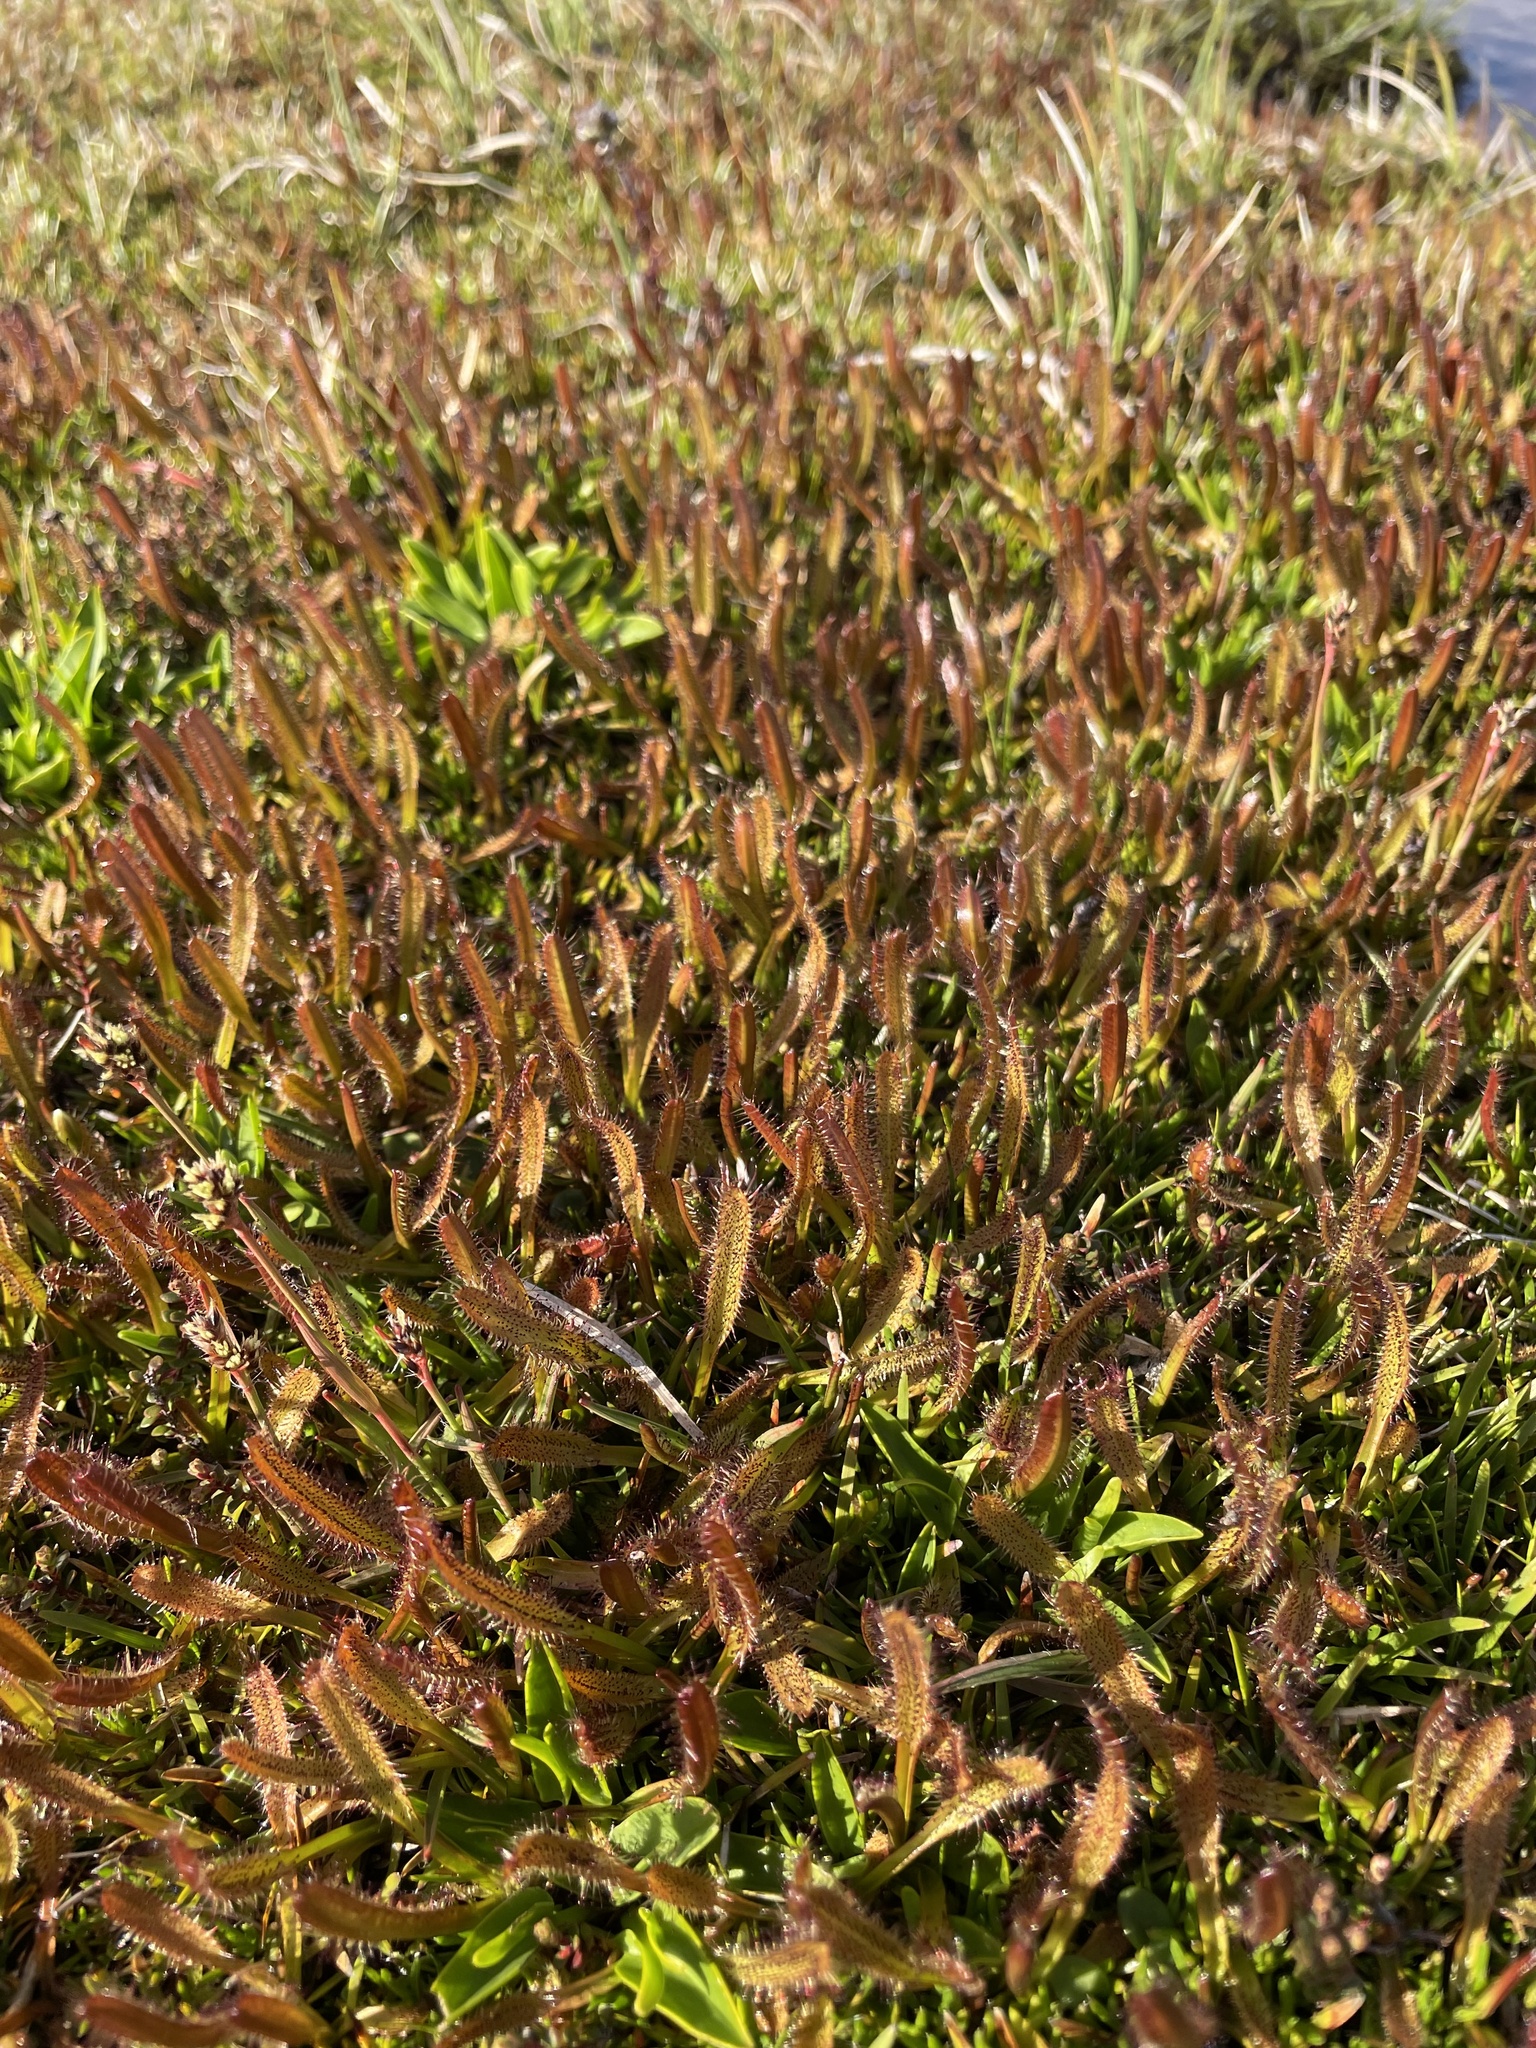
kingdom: Plantae
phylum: Tracheophyta
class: Magnoliopsida
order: Caryophyllales
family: Droseraceae
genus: Drosera
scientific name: Drosera arcturi
